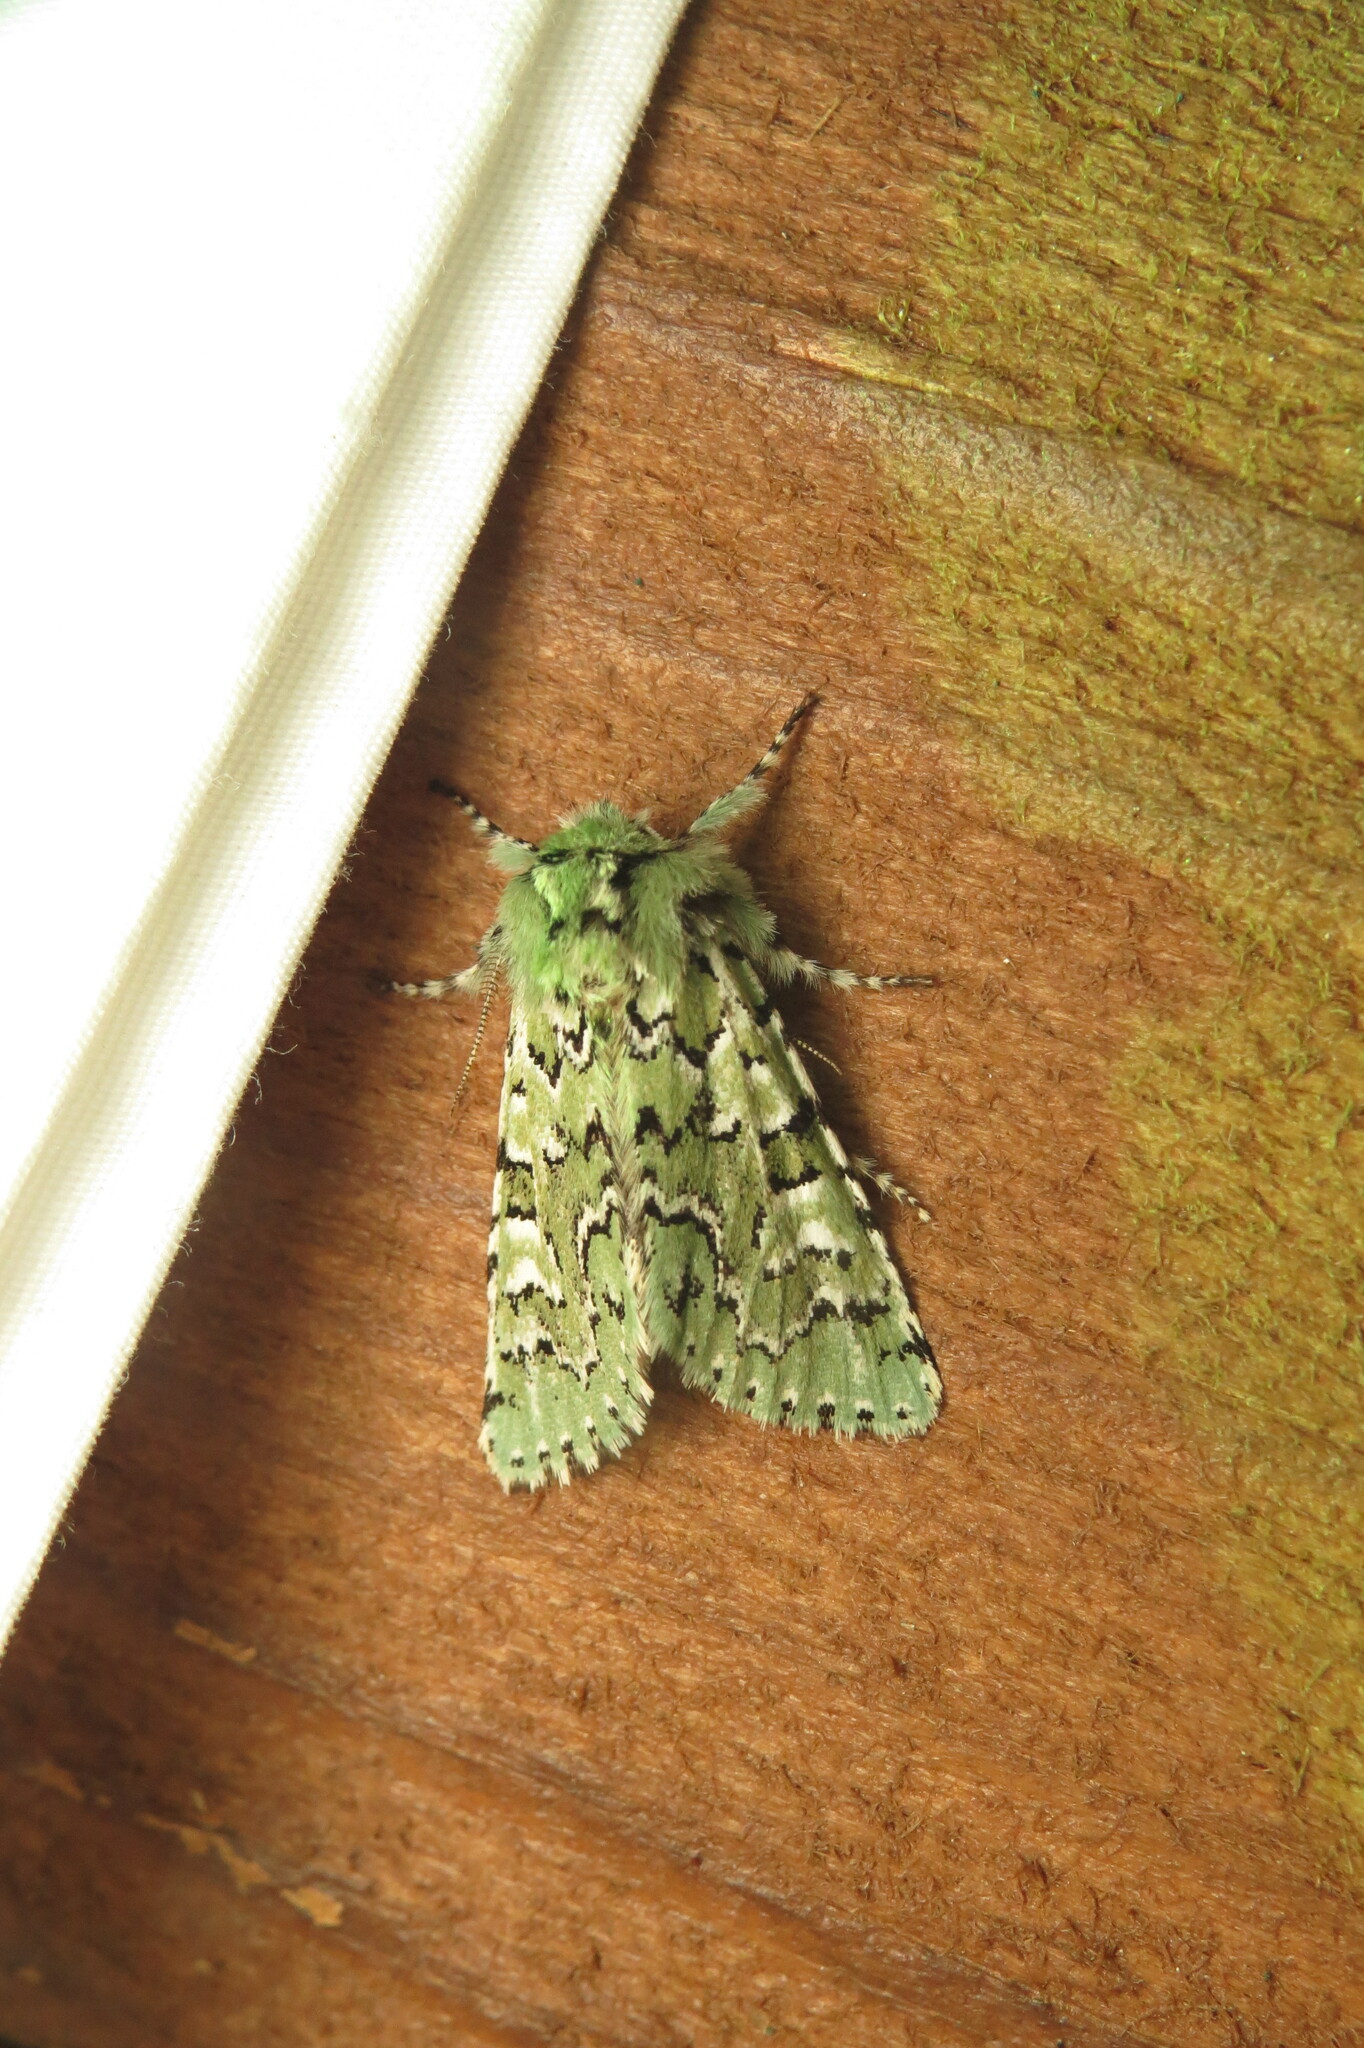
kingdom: Animalia
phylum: Arthropoda
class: Insecta
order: Lepidoptera
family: Noctuidae
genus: Feralia
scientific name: Feralia jocosa
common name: Joker
